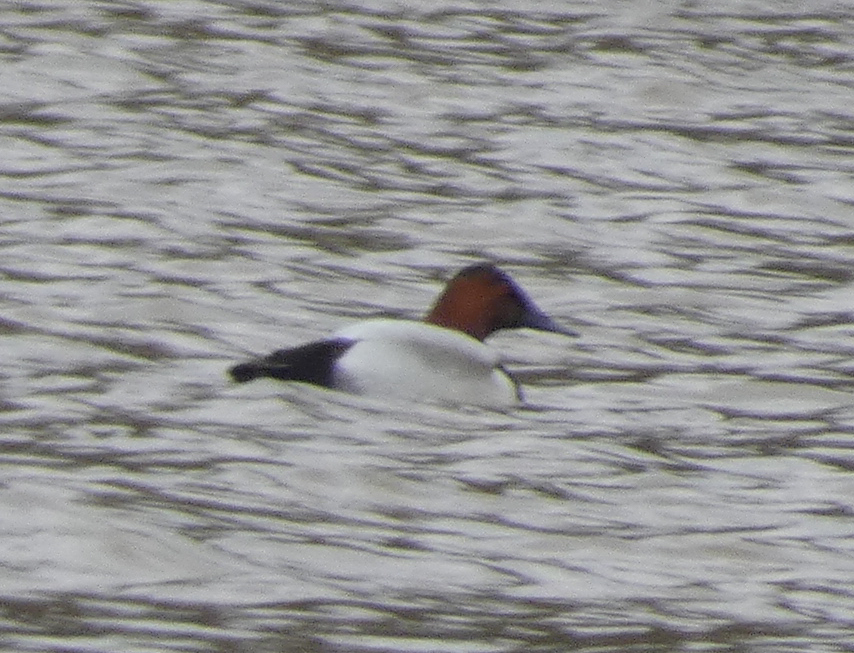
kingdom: Animalia
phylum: Chordata
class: Aves
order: Anseriformes
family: Anatidae
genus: Aythya
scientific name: Aythya valisineria
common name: Canvasback
